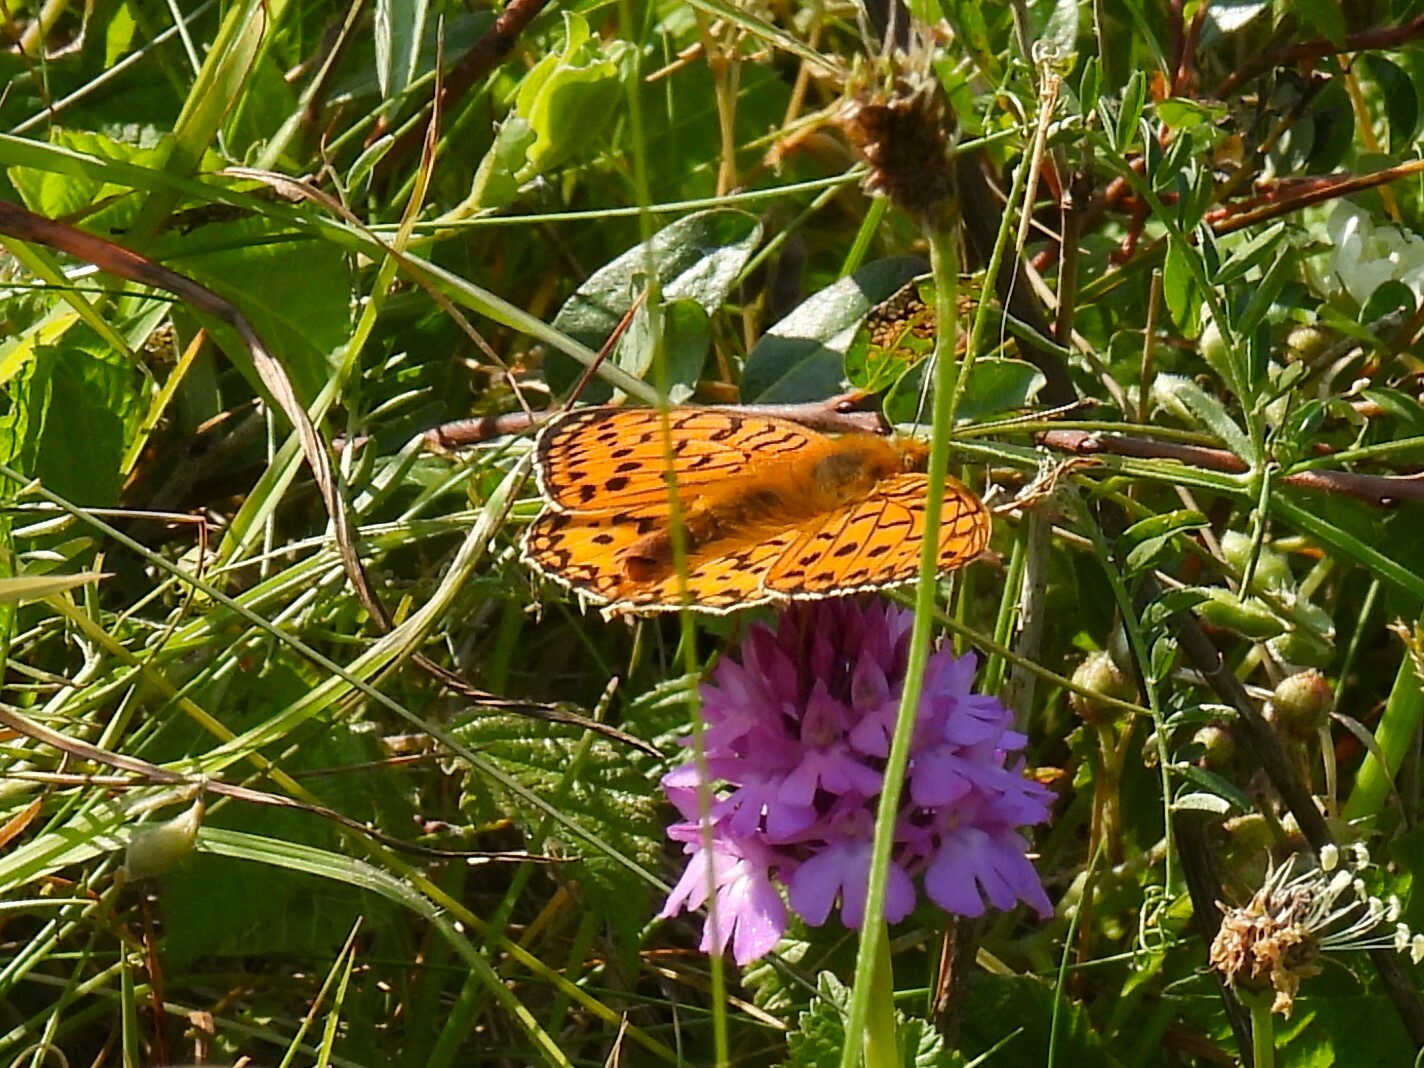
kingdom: Animalia
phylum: Arthropoda
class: Insecta
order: Lepidoptera
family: Nymphalidae
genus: Speyeria
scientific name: Speyeria aglaja
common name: Dark green fritillary
